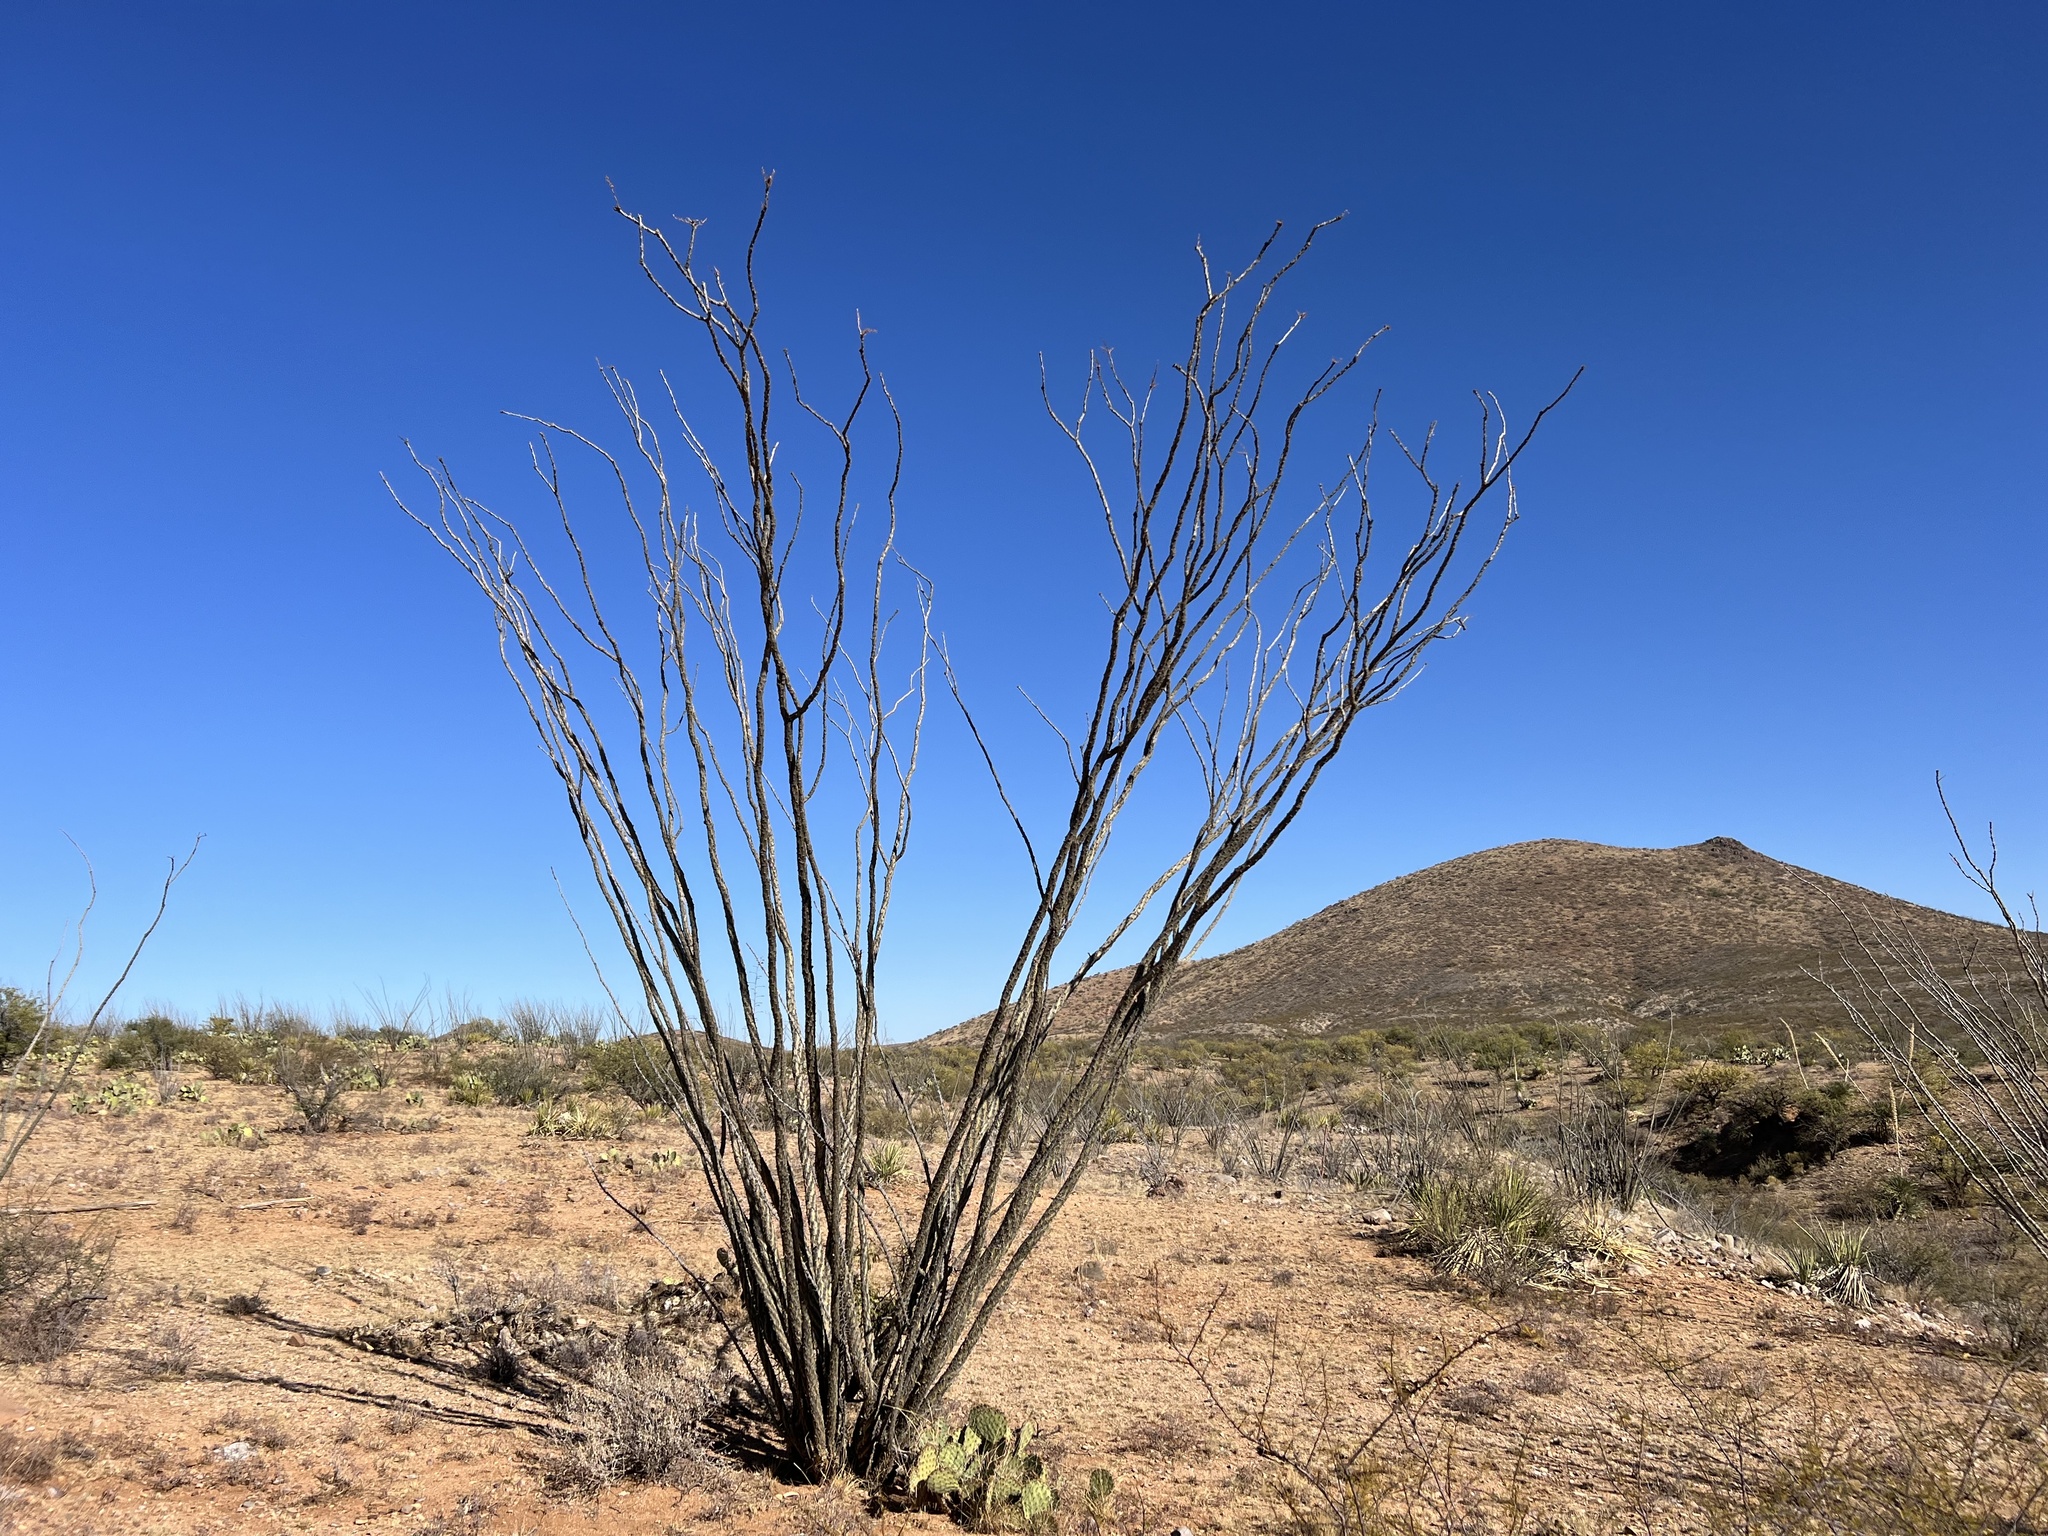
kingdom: Plantae
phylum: Tracheophyta
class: Magnoliopsida
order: Ericales
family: Fouquieriaceae
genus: Fouquieria
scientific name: Fouquieria splendens
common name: Vine-cactus
